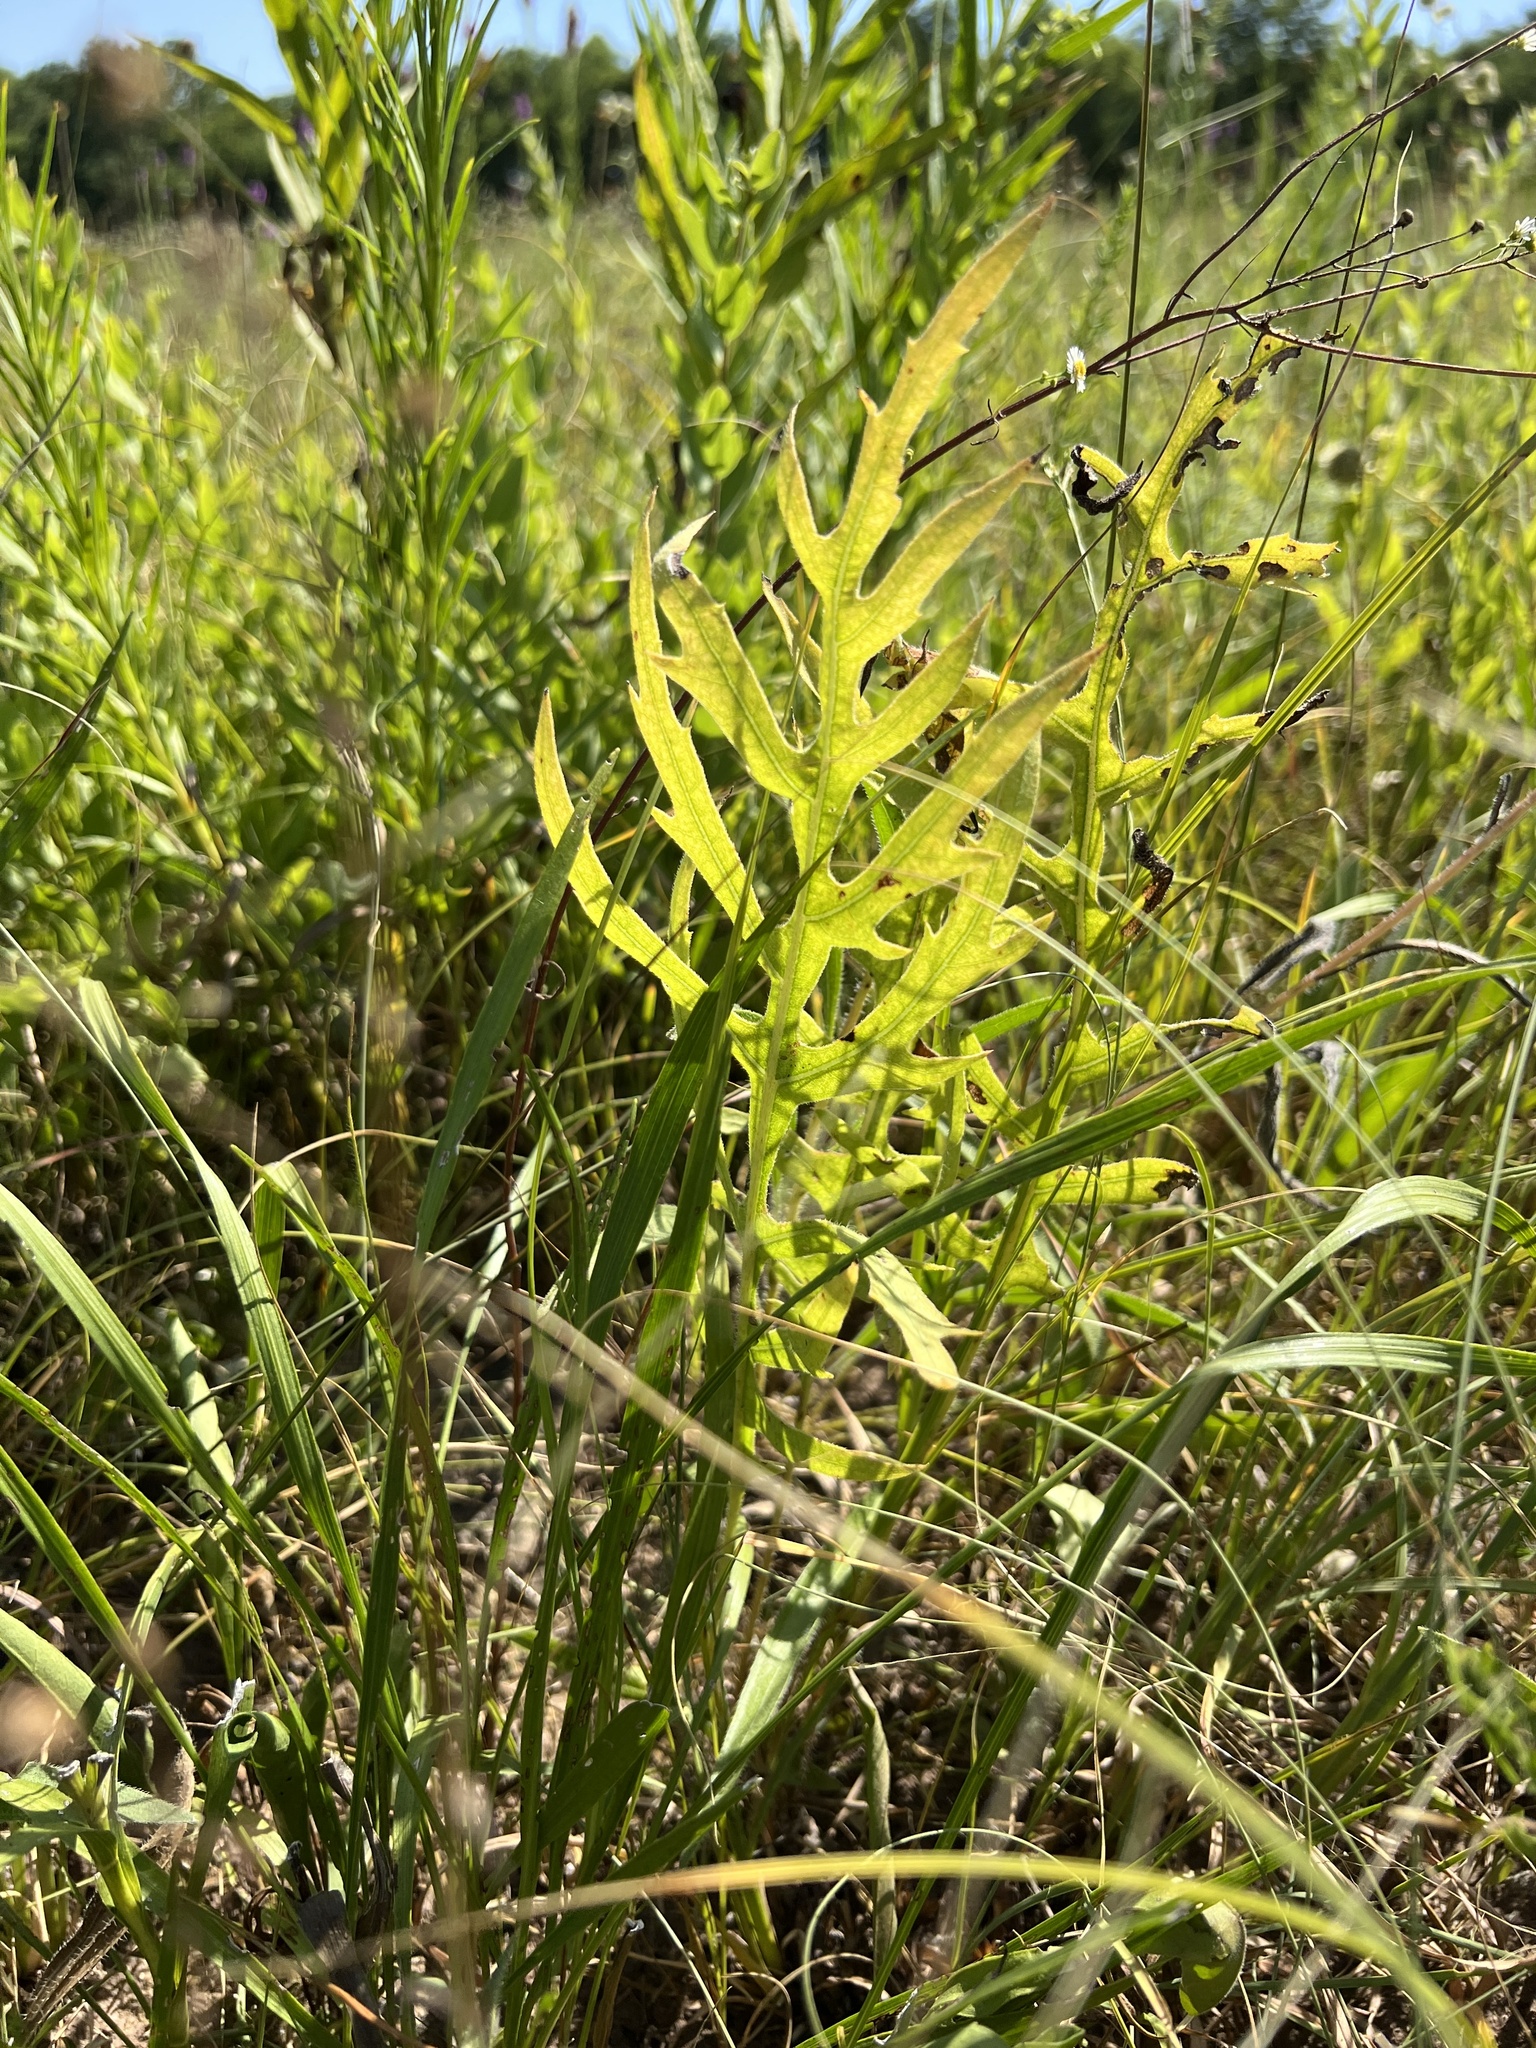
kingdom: Plantae
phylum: Tracheophyta
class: Magnoliopsida
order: Asterales
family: Asteraceae
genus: Silphium
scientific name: Silphium laciniatum
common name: Polarplant
